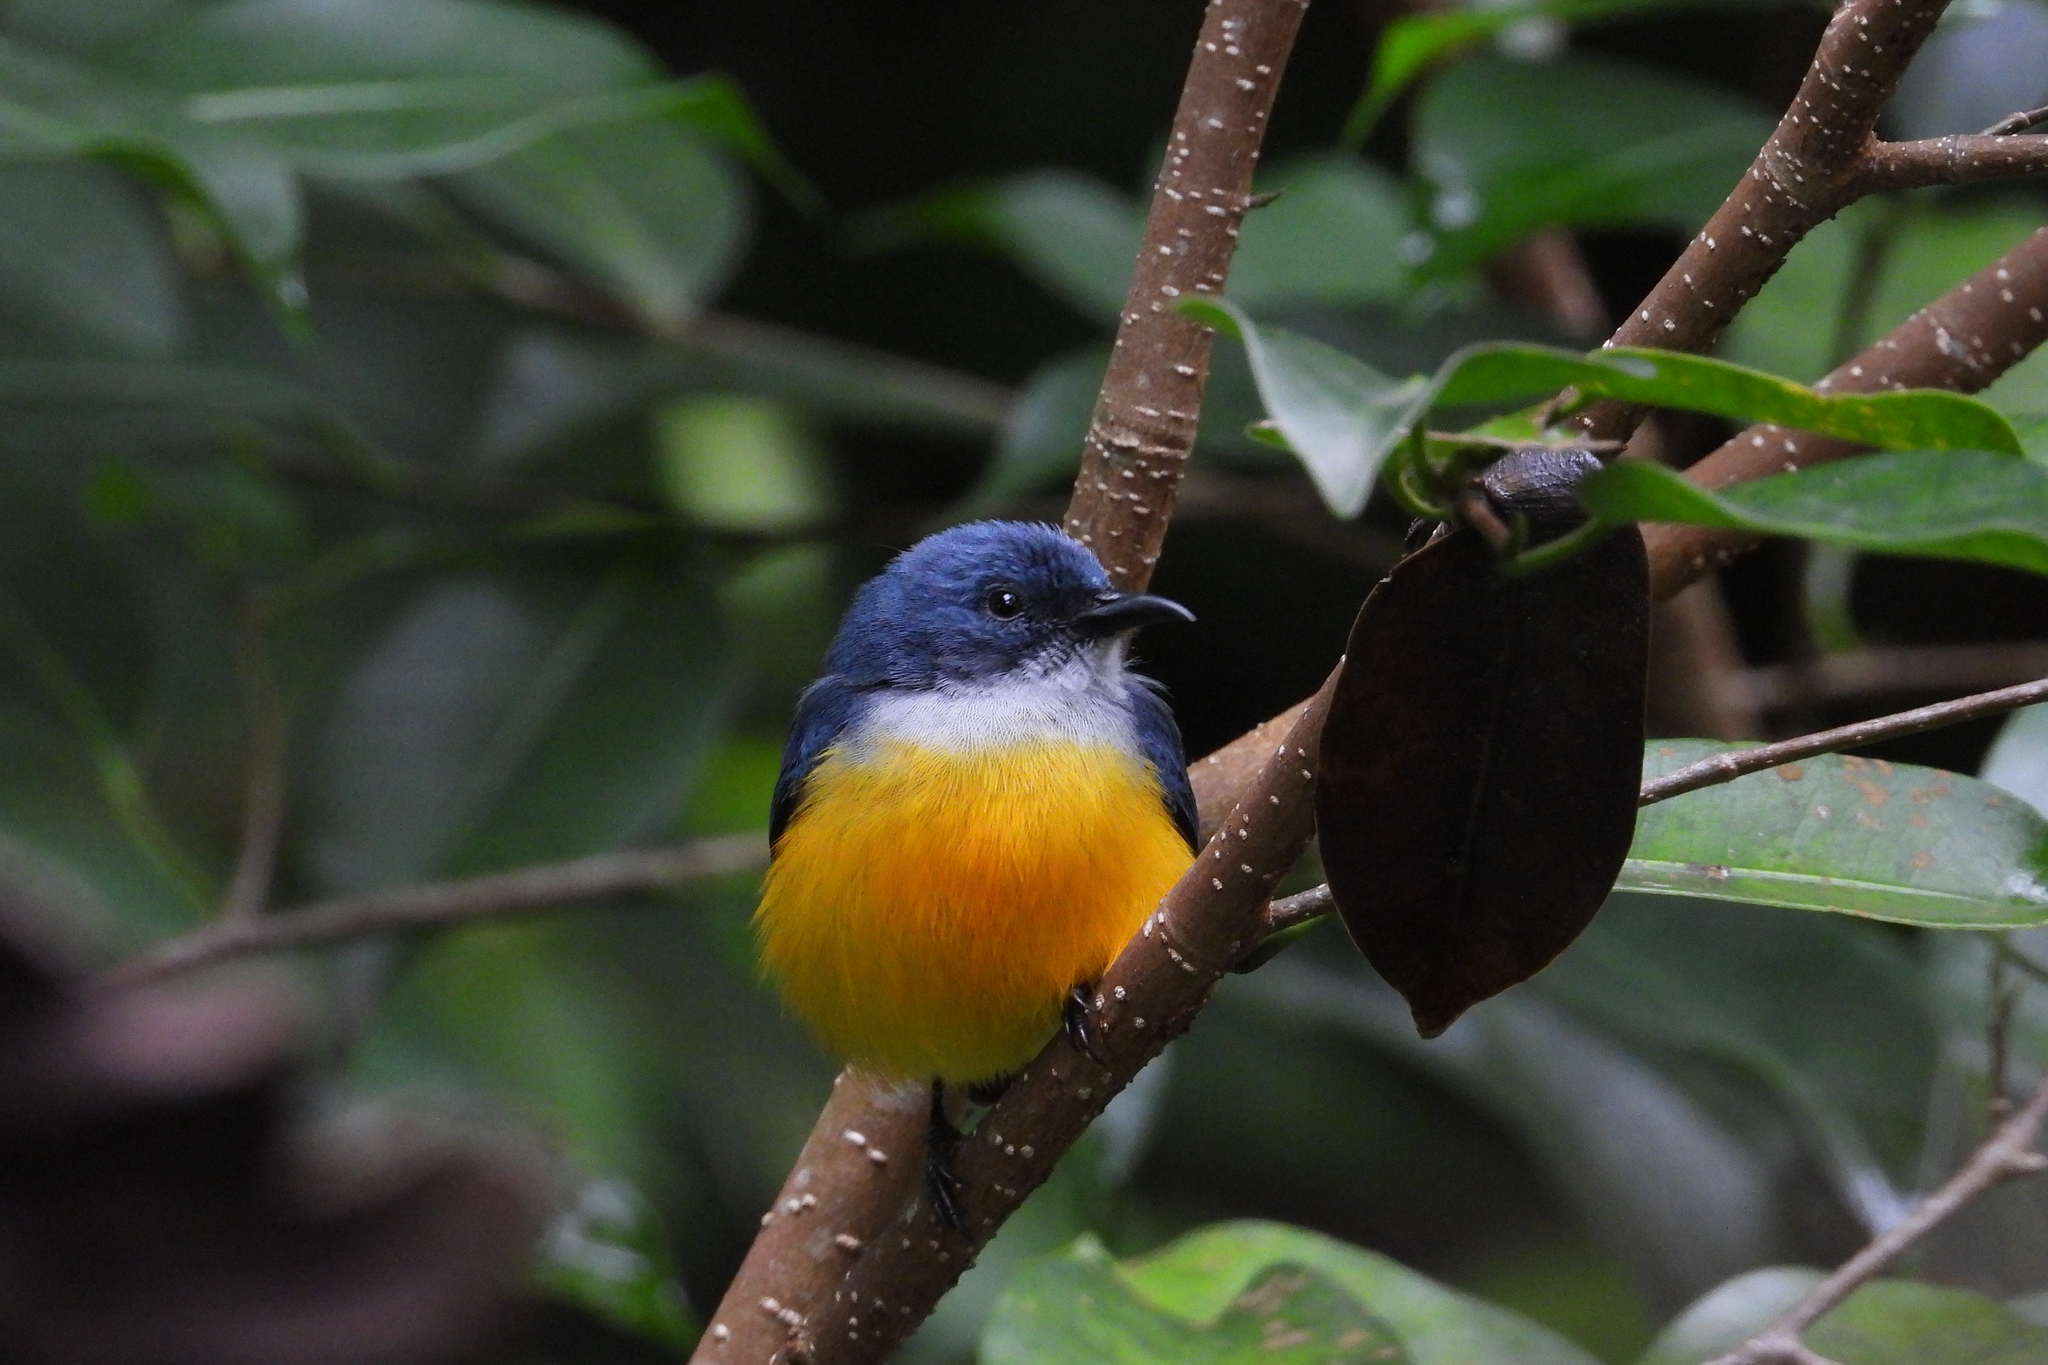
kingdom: Animalia
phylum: Chordata
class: Aves
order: Passeriformes
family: Dicaeidae
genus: Dicaeum
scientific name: Dicaeum trigonostigma
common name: Orange-bellied flowerpecker
